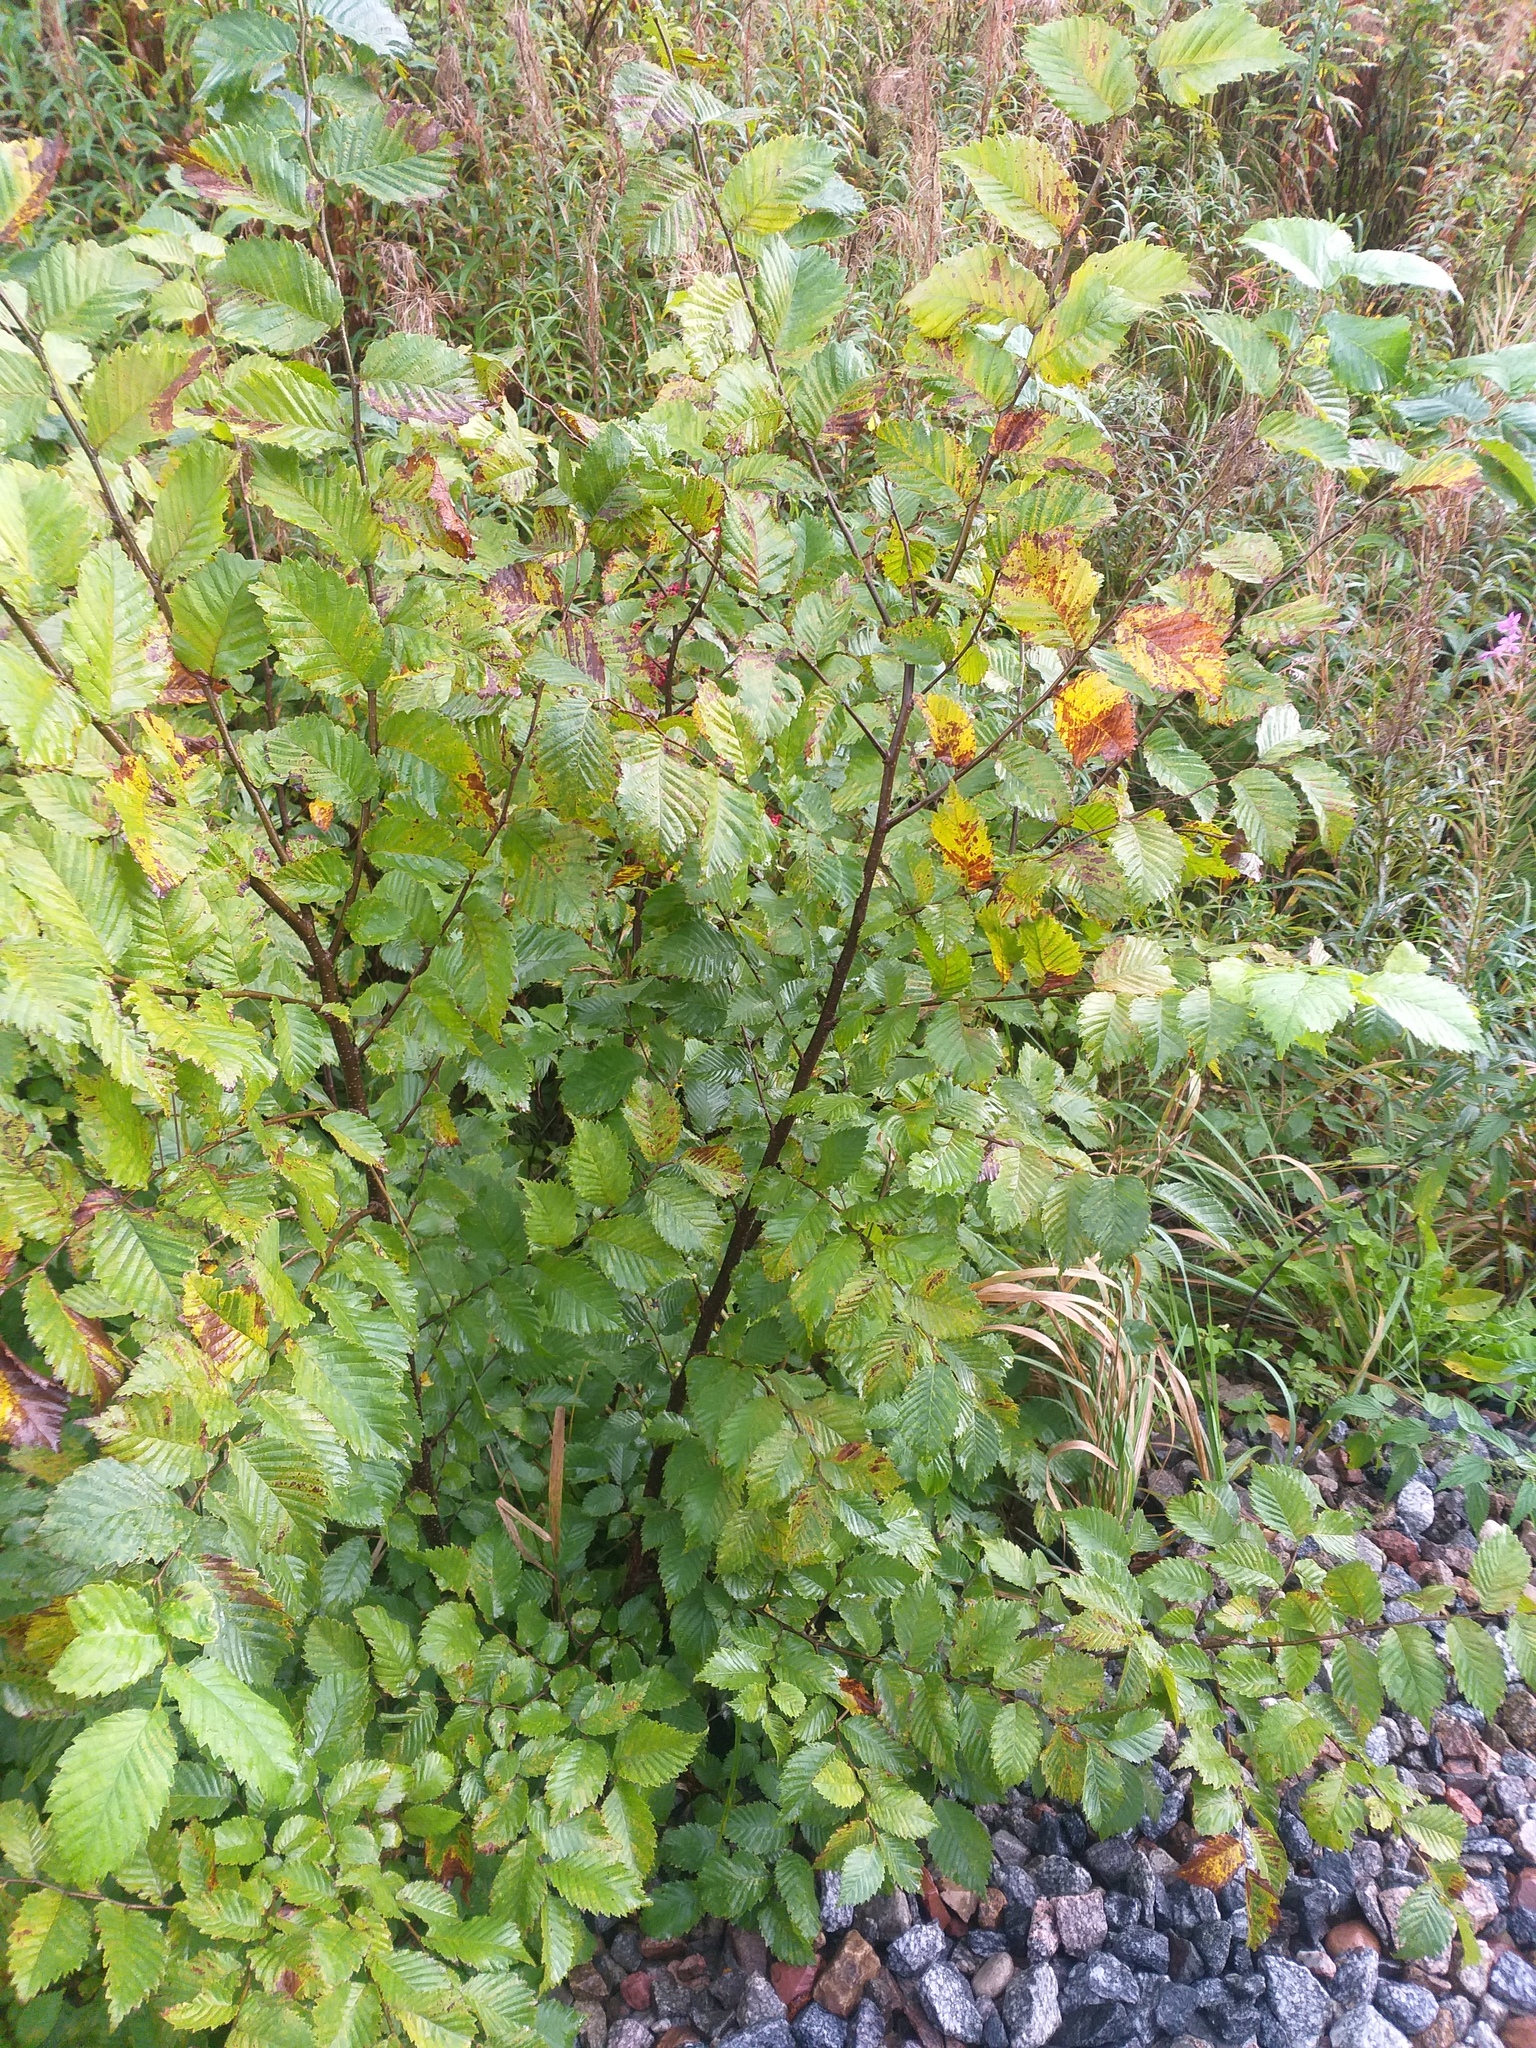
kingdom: Plantae
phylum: Tracheophyta
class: Magnoliopsida
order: Rosales
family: Ulmaceae
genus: Ulmus
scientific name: Ulmus laevis
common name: European white-elm
